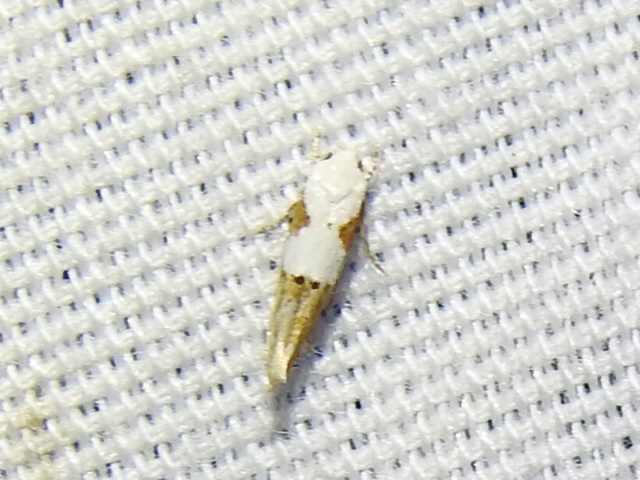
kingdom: Animalia
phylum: Arthropoda
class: Insecta
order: Lepidoptera
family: Momphidae
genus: Mompha
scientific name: Mompha circumscriptella
